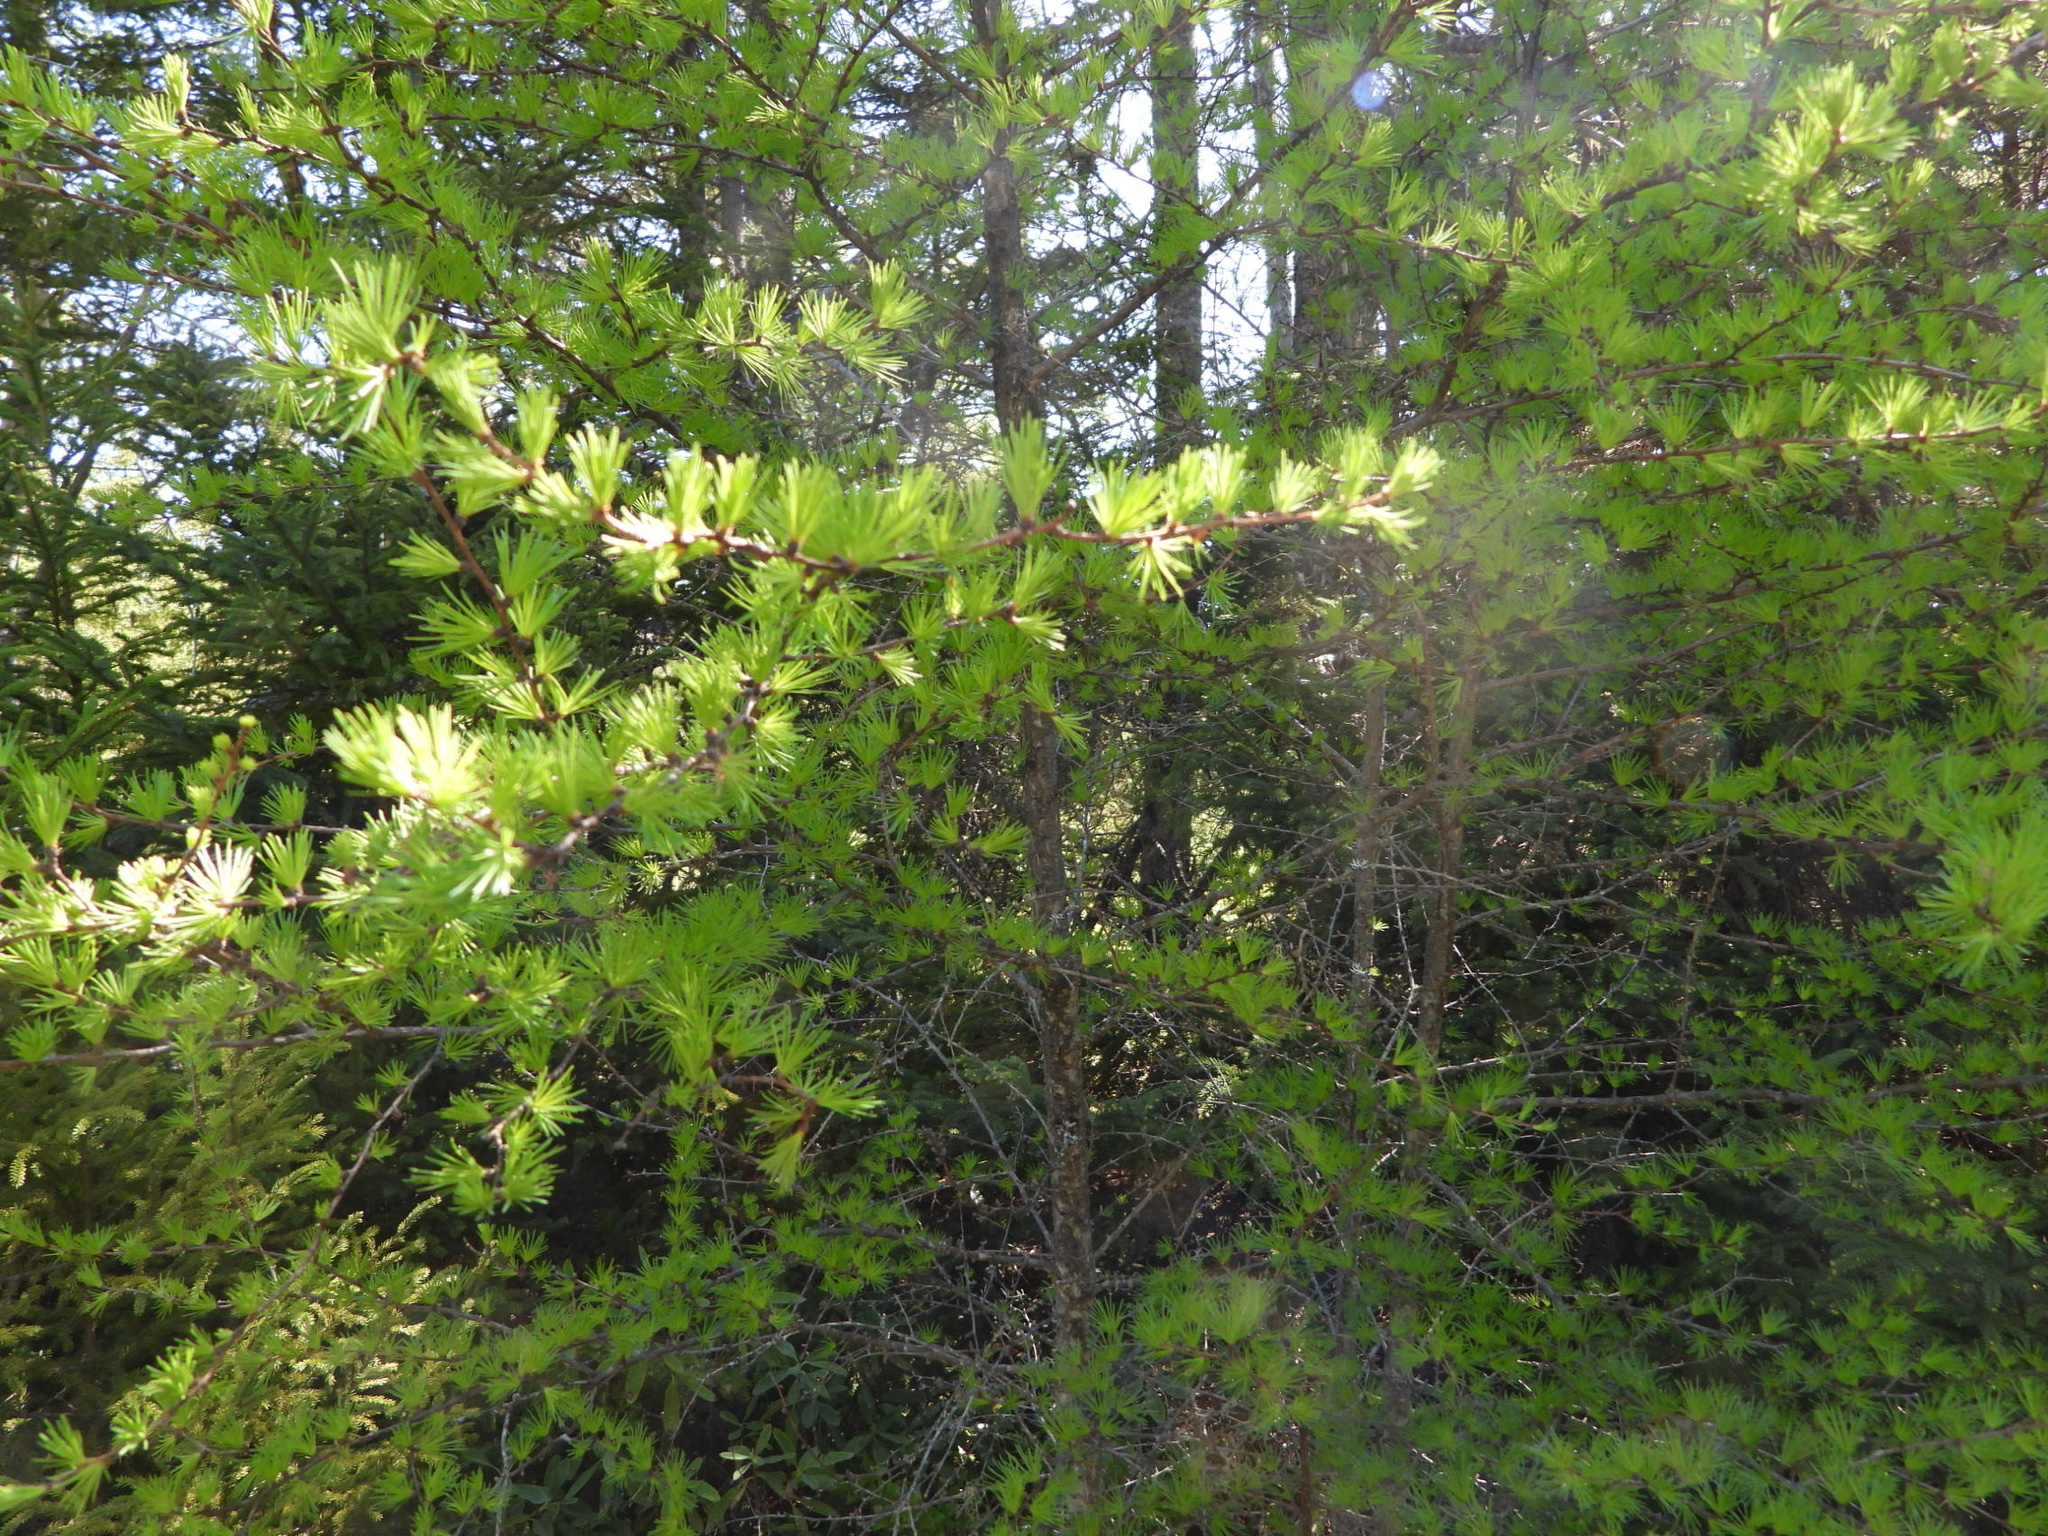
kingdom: Plantae
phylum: Tracheophyta
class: Pinopsida
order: Pinales
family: Pinaceae
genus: Larix
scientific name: Larix laricina
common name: American larch
